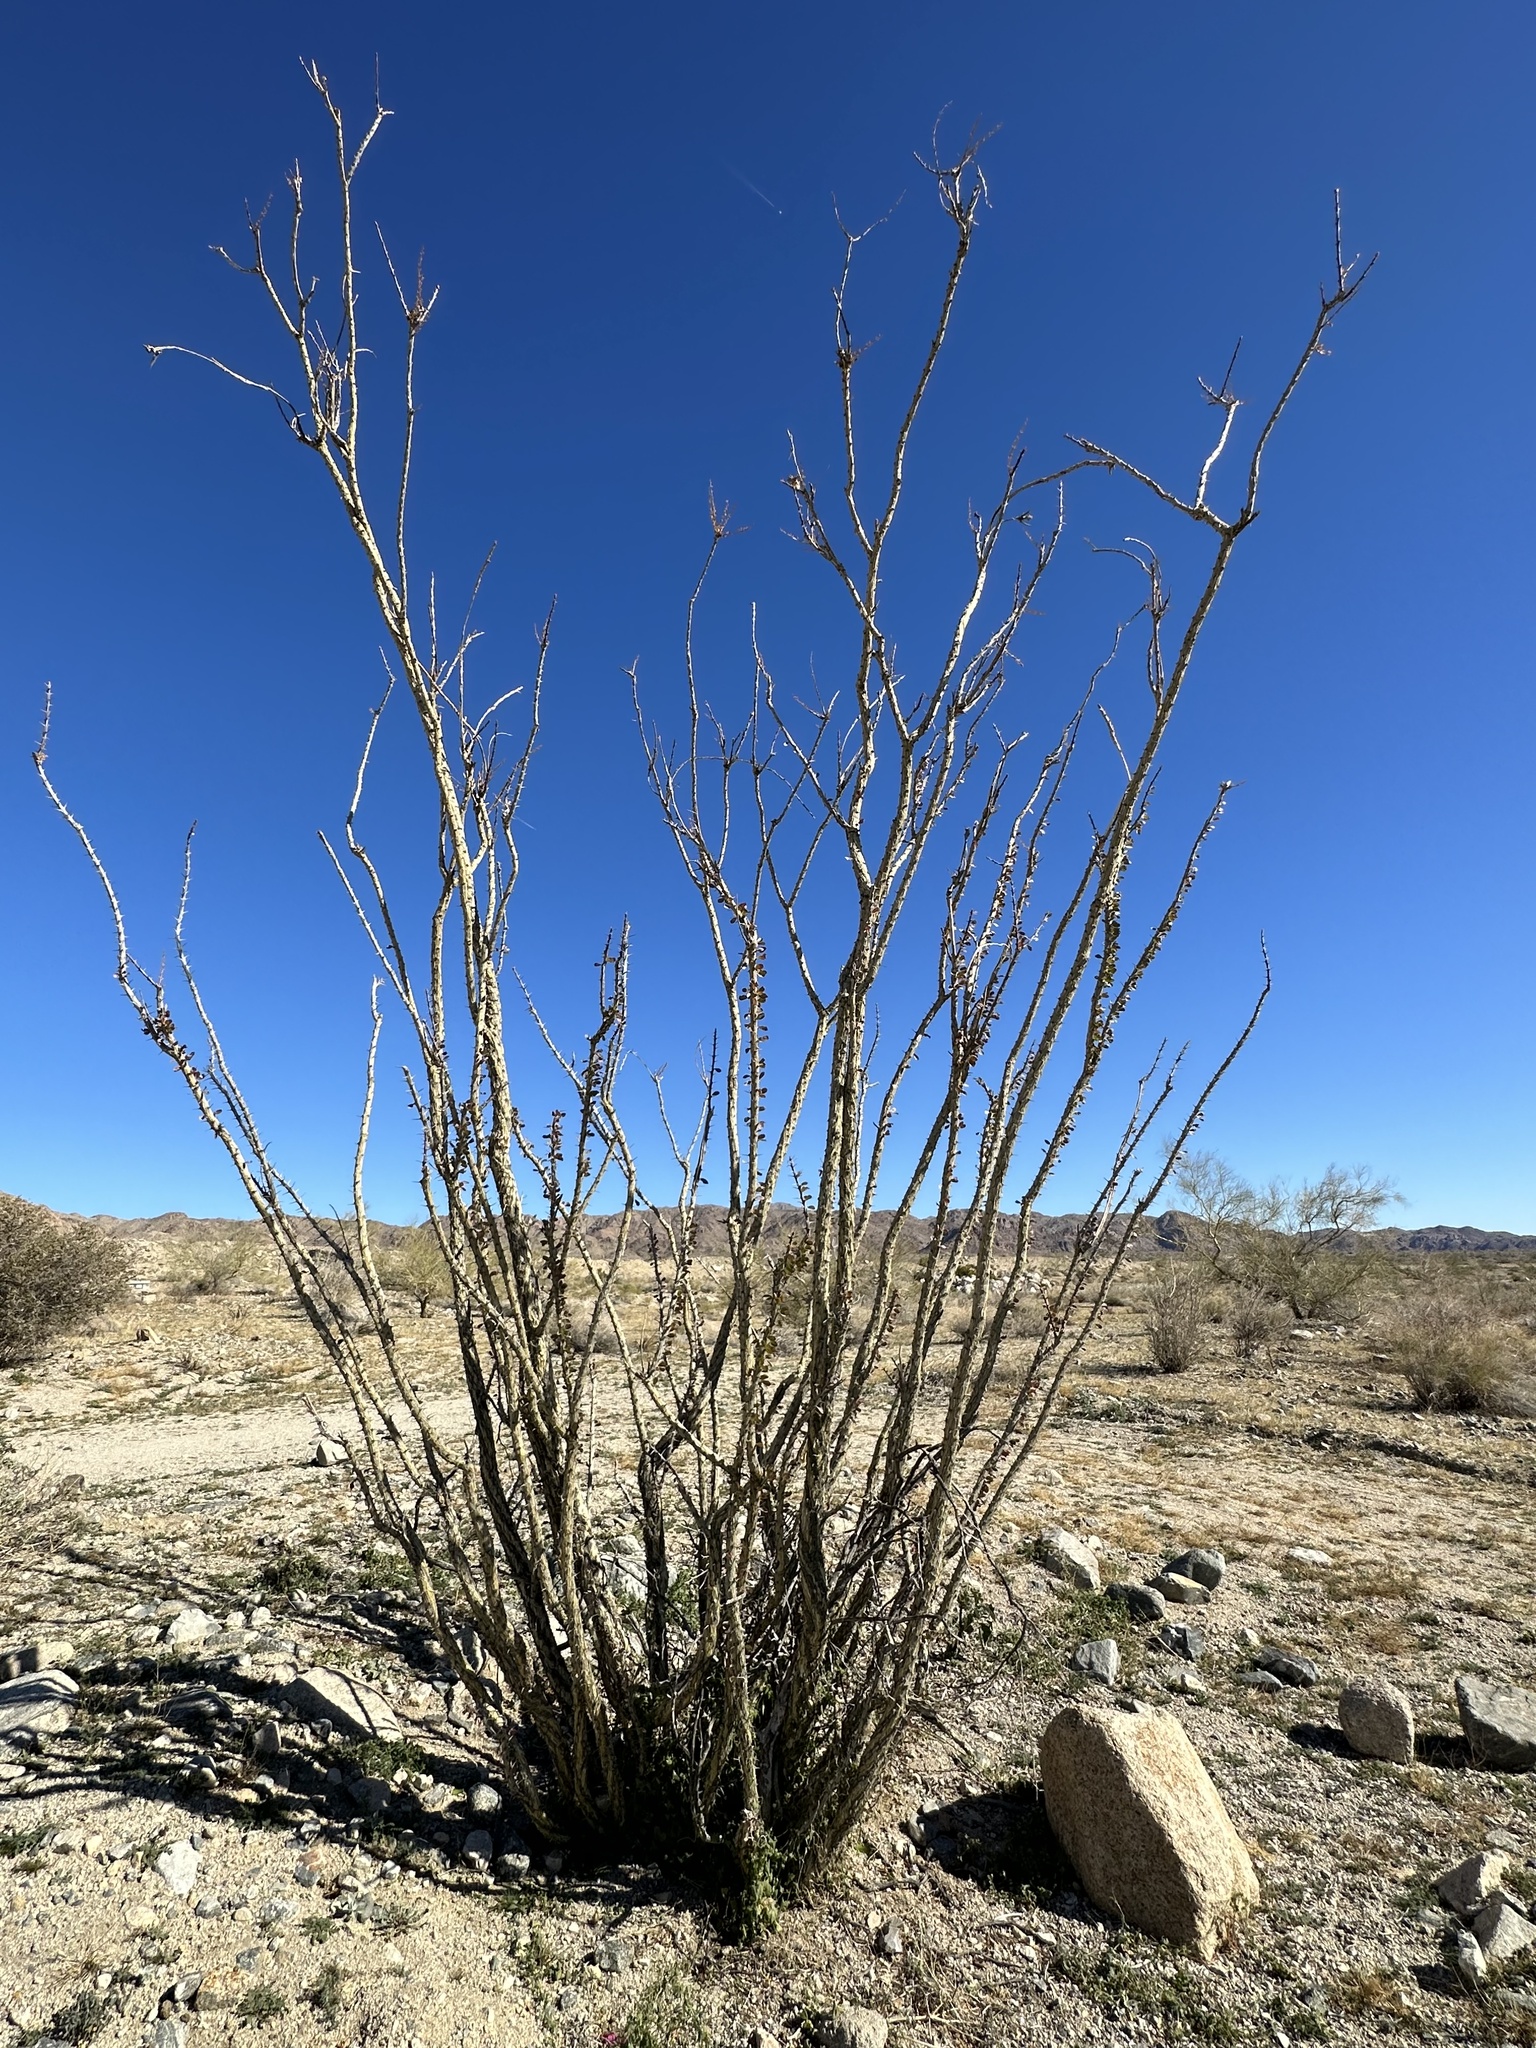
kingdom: Plantae
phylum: Tracheophyta
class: Magnoliopsida
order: Ericales
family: Fouquieriaceae
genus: Fouquieria
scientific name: Fouquieria splendens
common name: Vine-cactus
